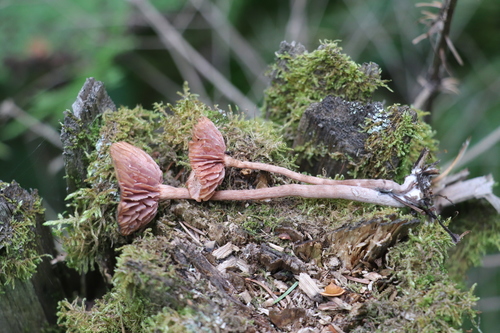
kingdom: Fungi
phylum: Basidiomycota
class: Agaricomycetes
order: Agaricales
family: Hydnangiaceae
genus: Laccaria
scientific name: Laccaria proxima
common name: Scurfy deceiver
